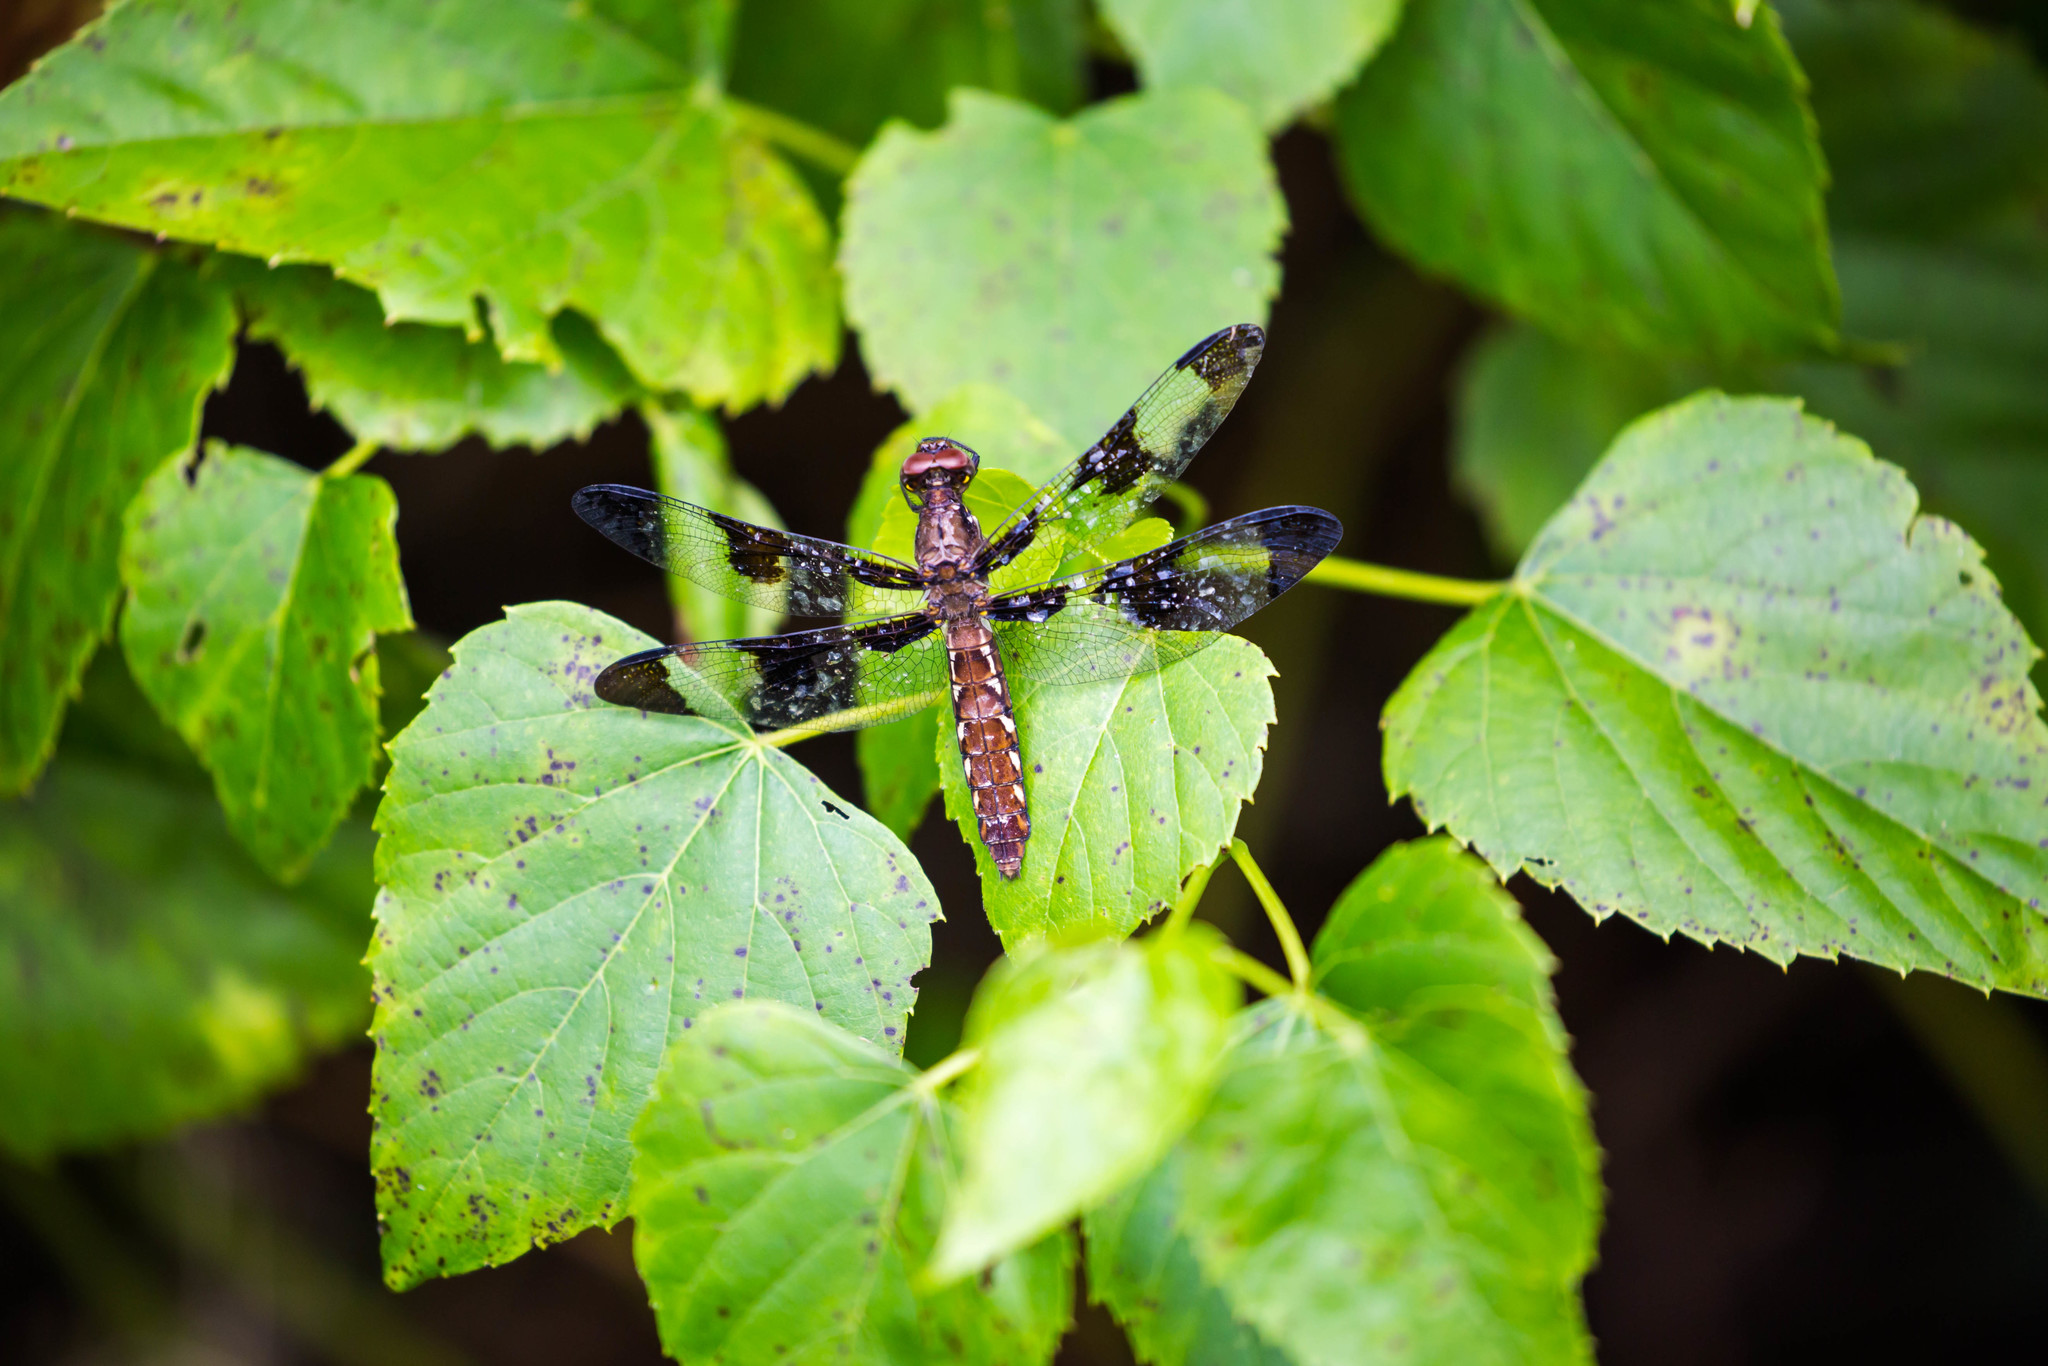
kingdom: Animalia
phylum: Arthropoda
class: Insecta
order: Odonata
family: Libellulidae
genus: Plathemis
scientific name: Plathemis lydia
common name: Common whitetail
